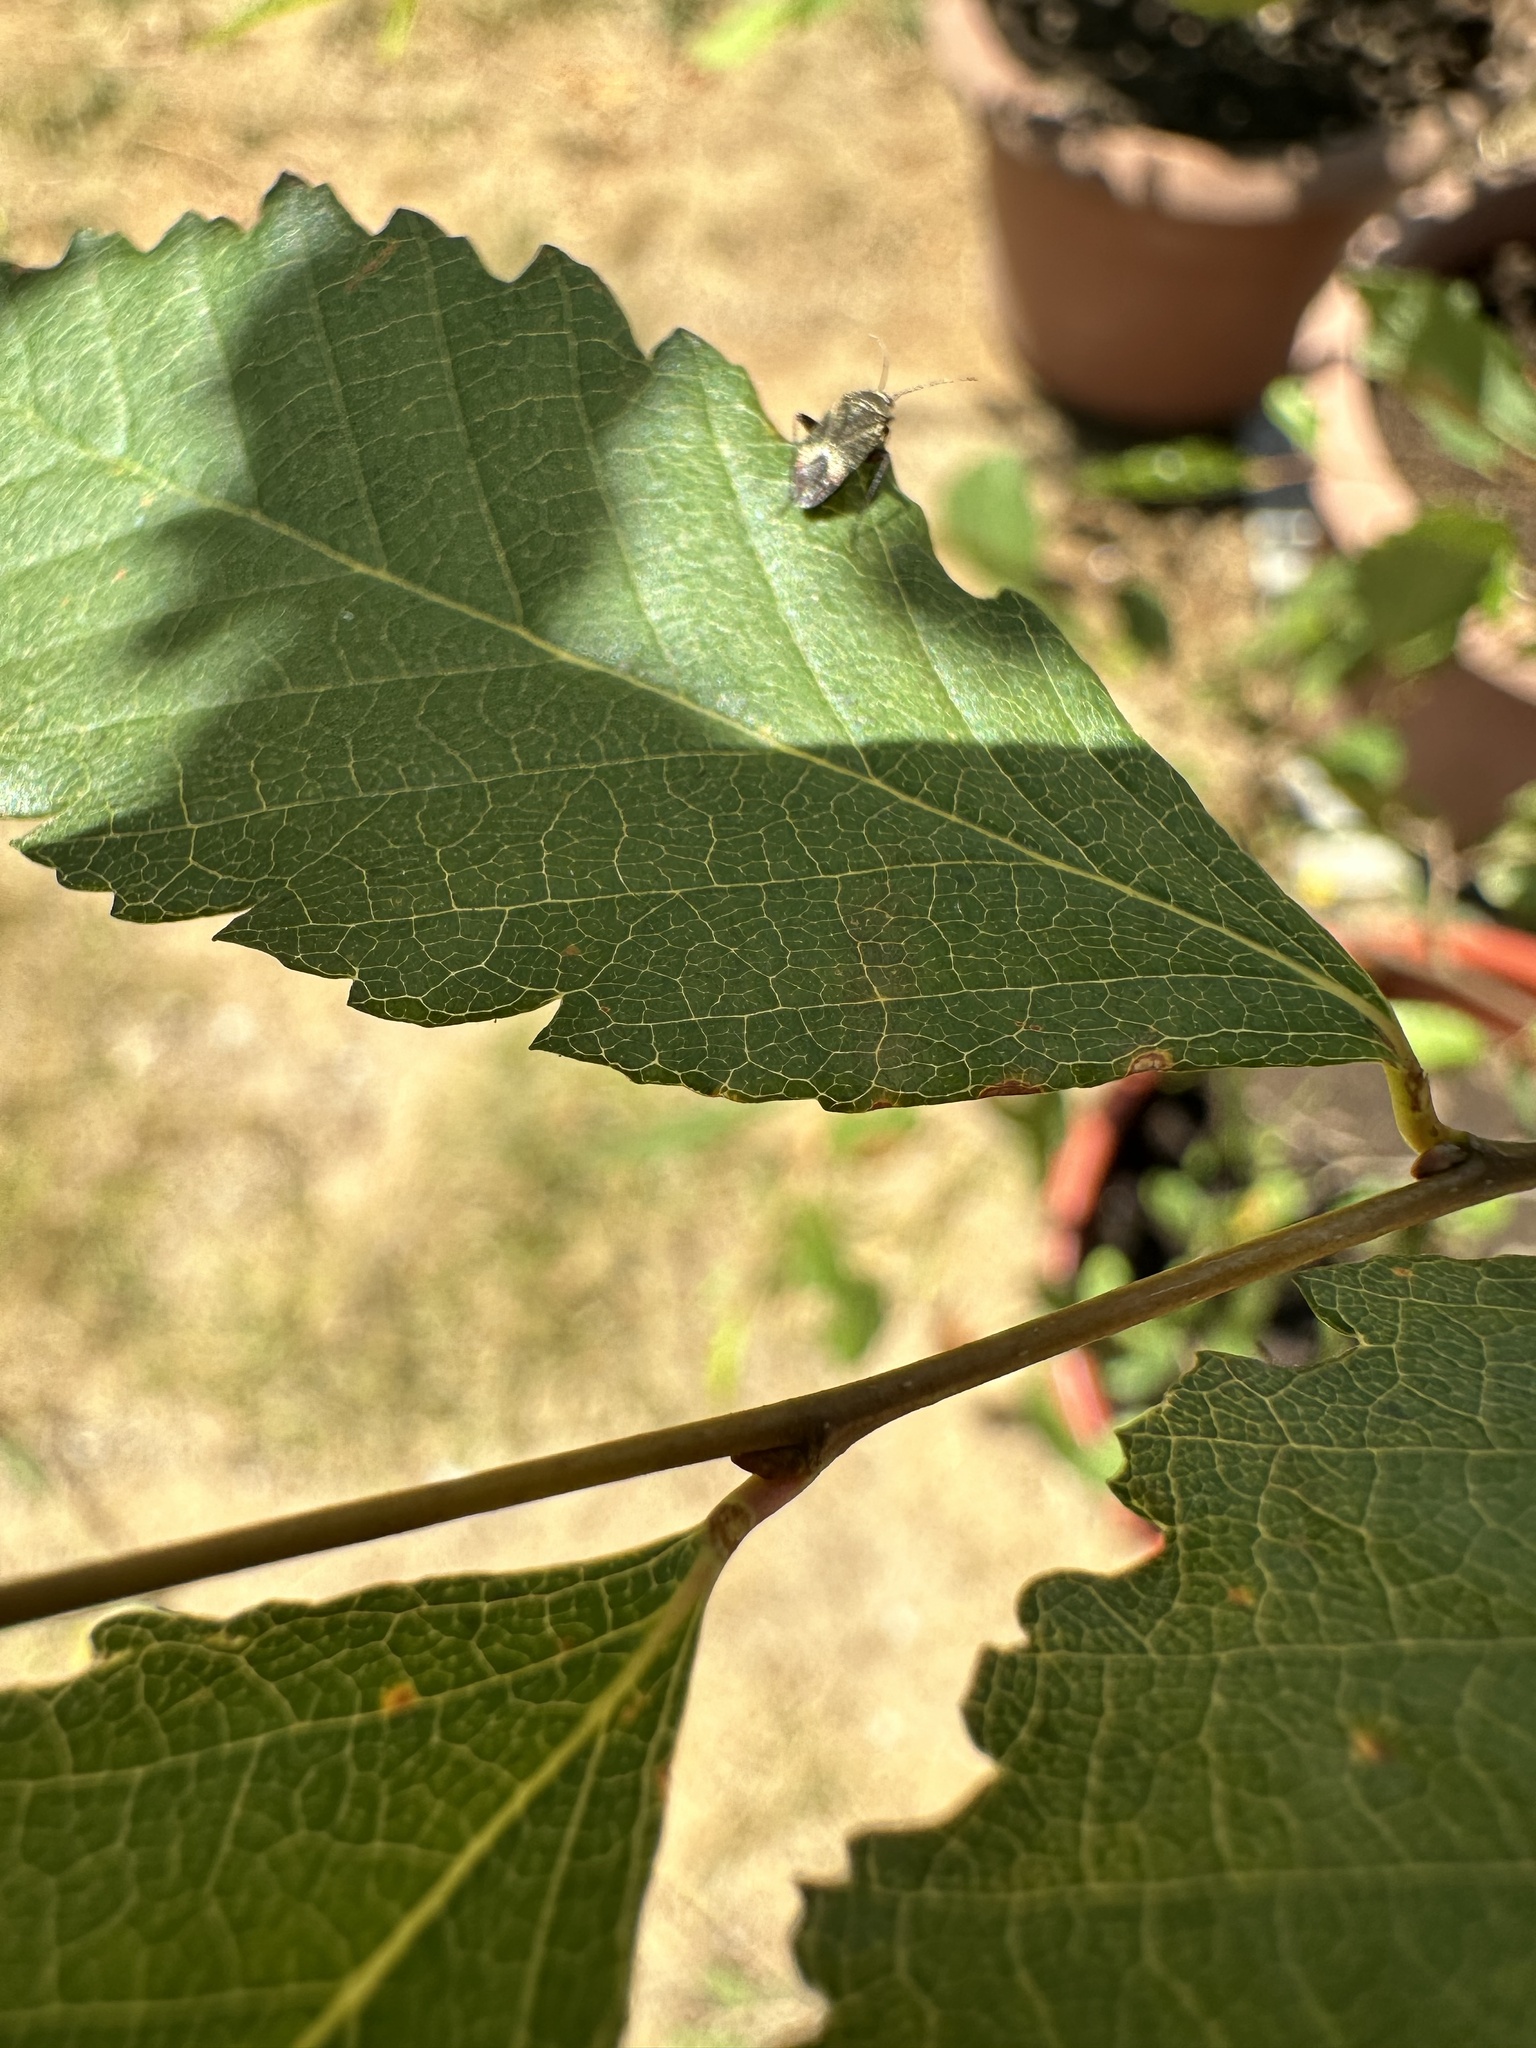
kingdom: Animalia
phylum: Arthropoda
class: Insecta
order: Hemiptera
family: Miridae
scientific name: Miridae
